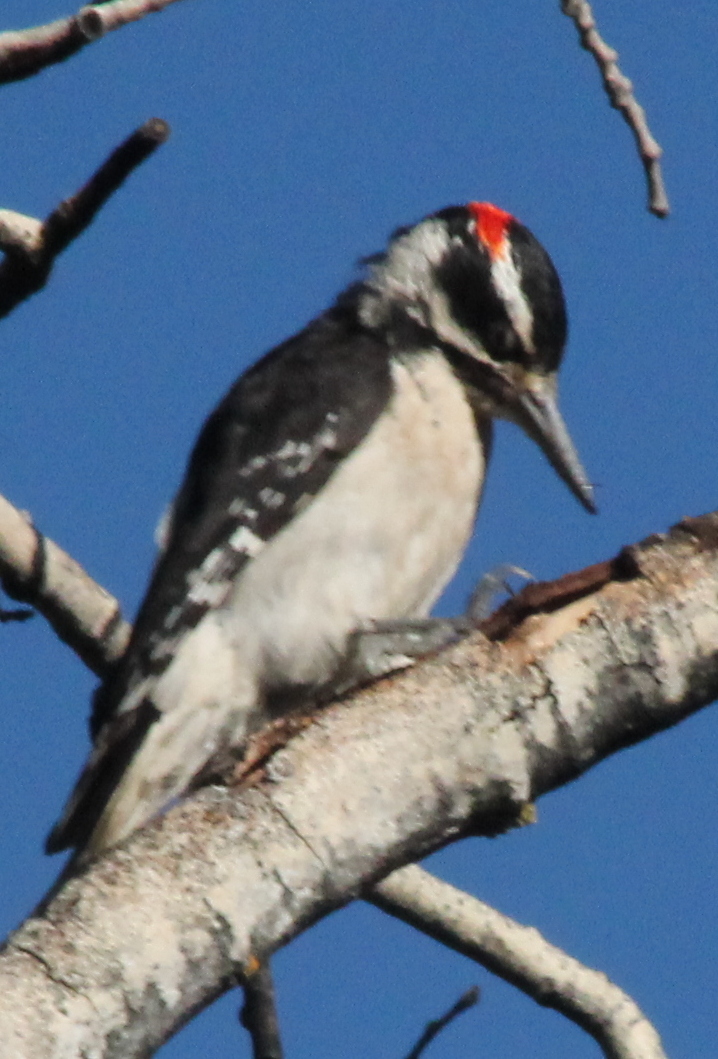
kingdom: Animalia
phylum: Chordata
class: Aves
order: Piciformes
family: Picidae
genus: Leuconotopicus
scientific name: Leuconotopicus villosus
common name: Hairy woodpecker
